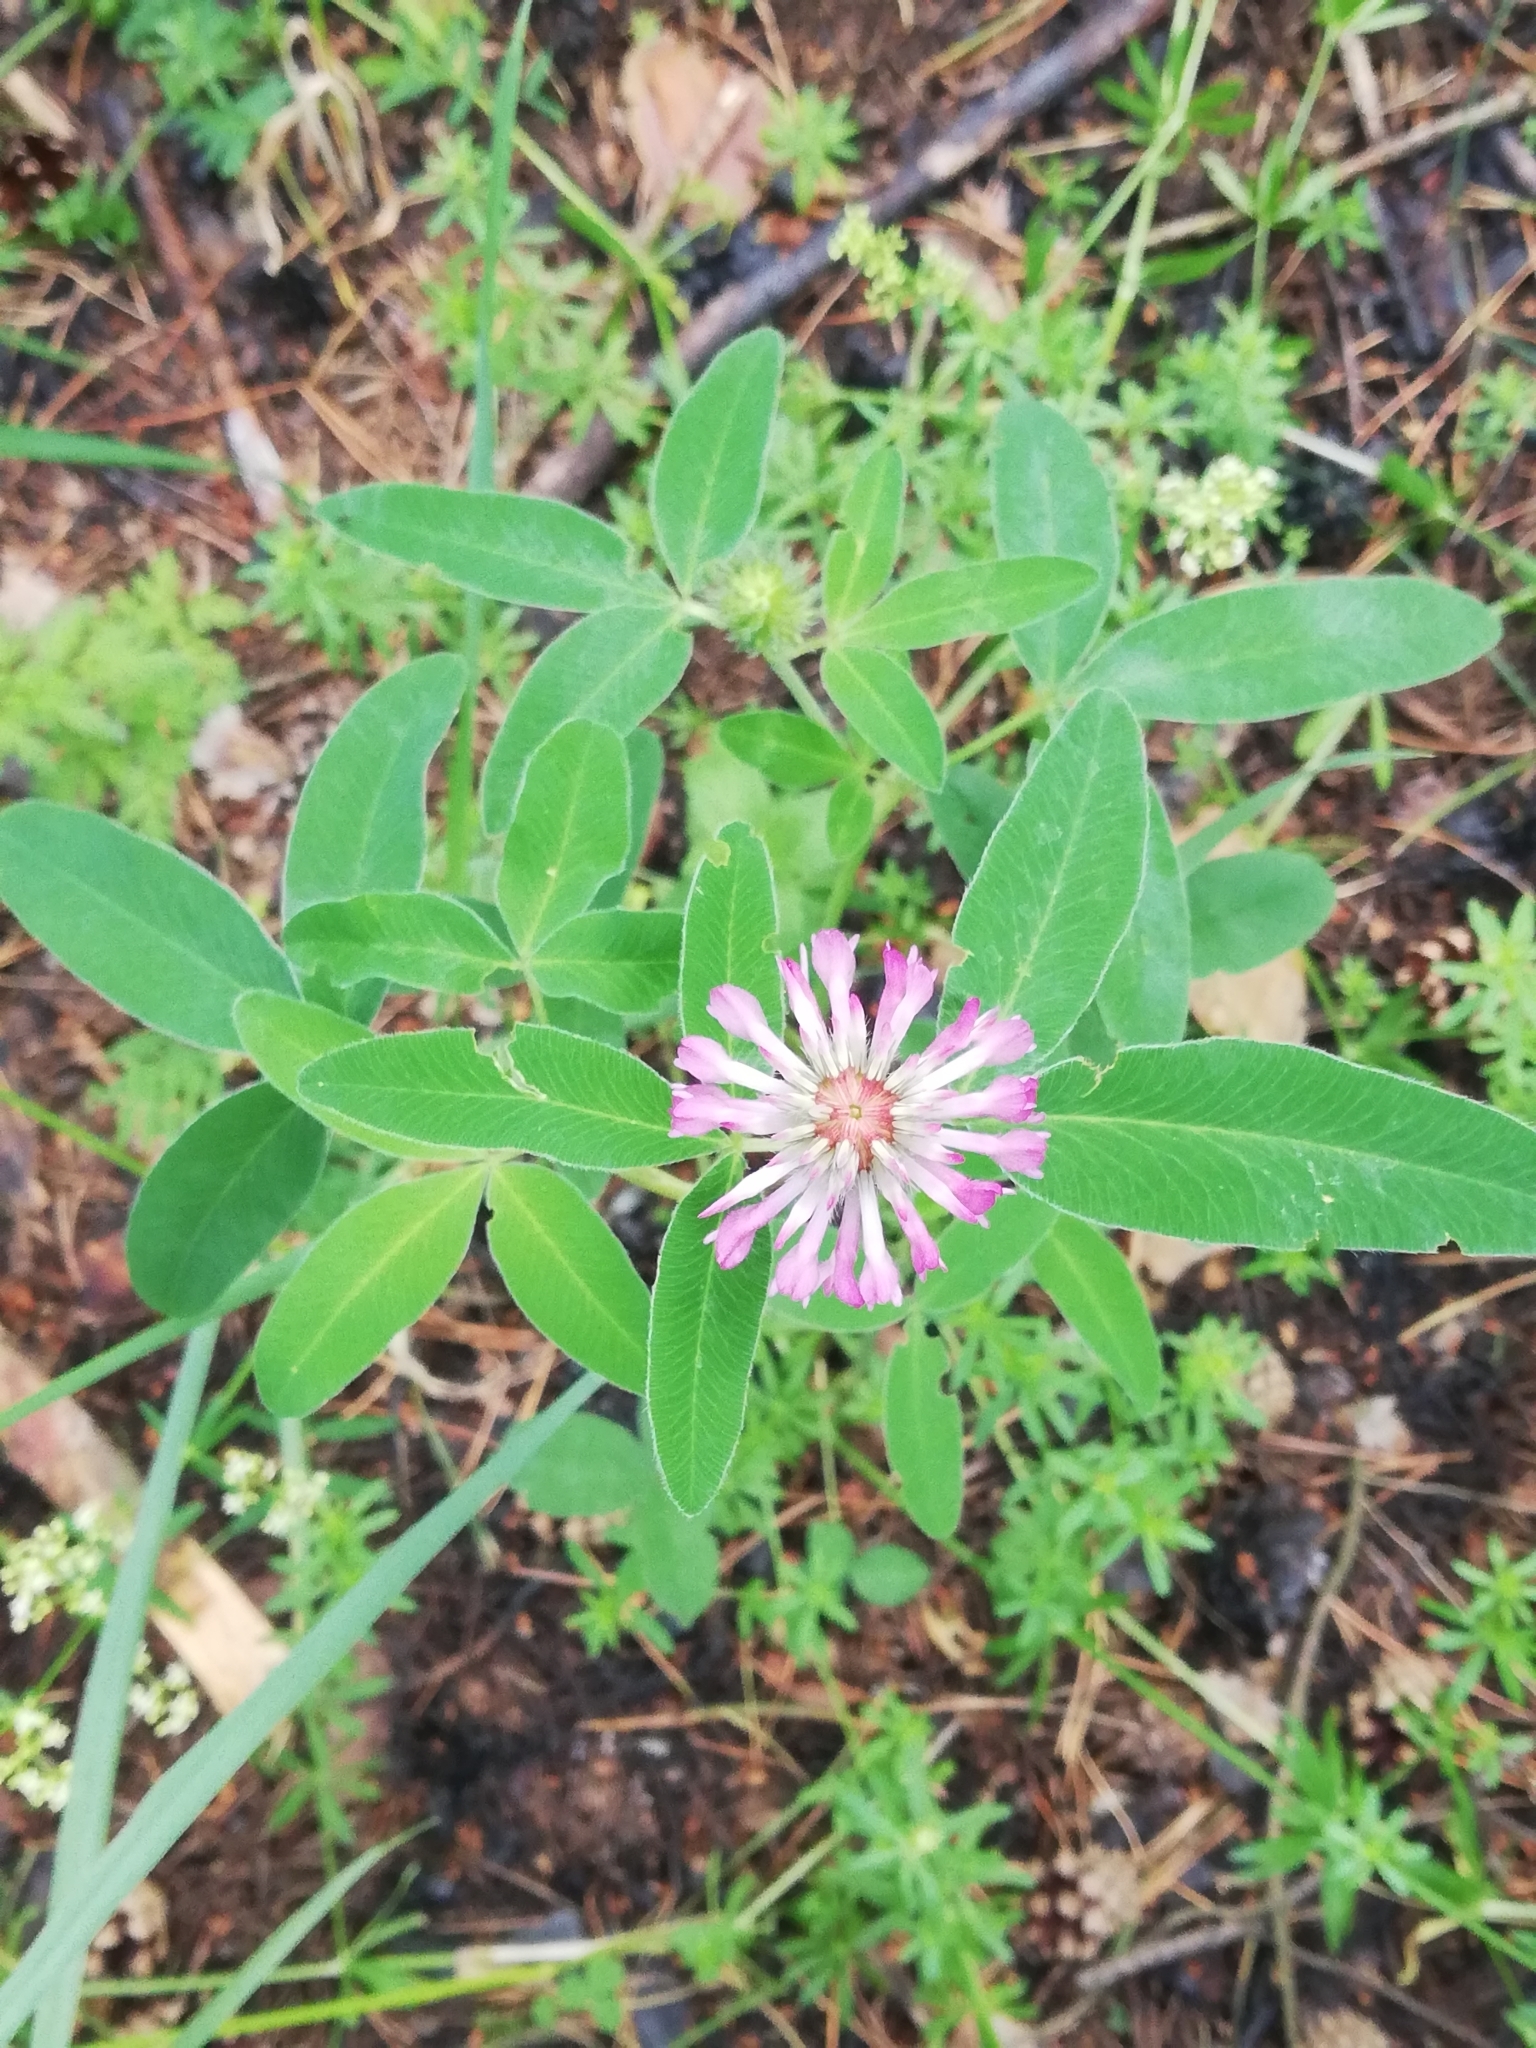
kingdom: Plantae
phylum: Tracheophyta
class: Magnoliopsida
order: Fabales
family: Fabaceae
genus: Trifolium
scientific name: Trifolium medium
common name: Zigzag clover
